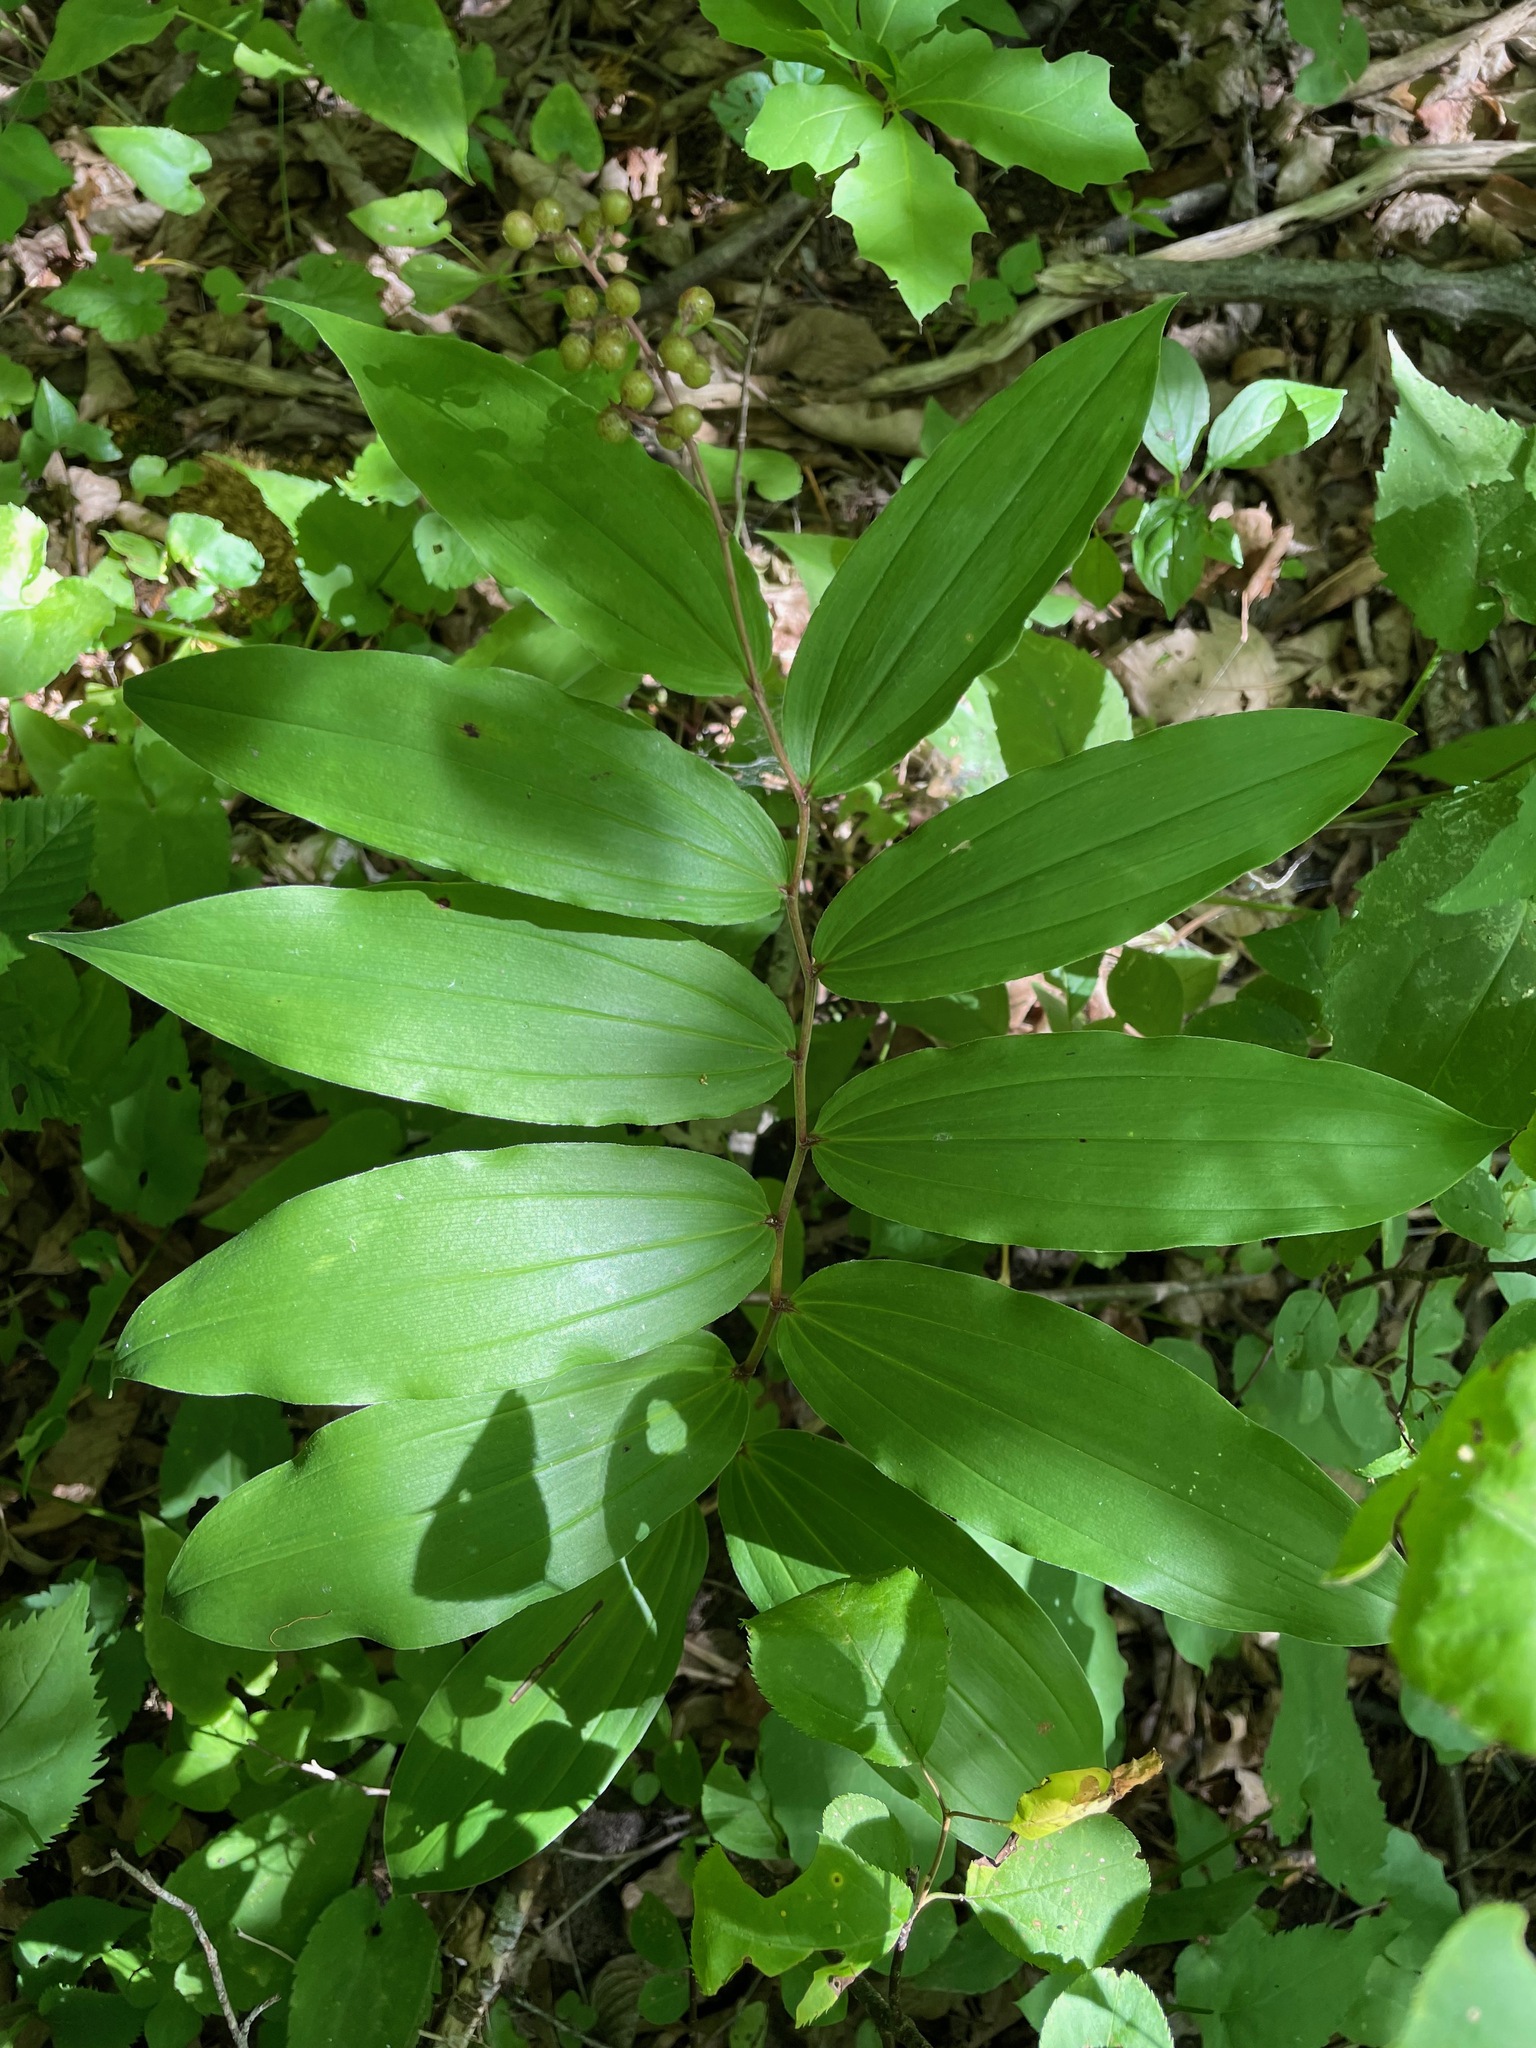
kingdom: Plantae
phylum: Tracheophyta
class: Liliopsida
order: Asparagales
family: Asparagaceae
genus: Maianthemum
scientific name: Maianthemum racemosum
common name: False spikenard
